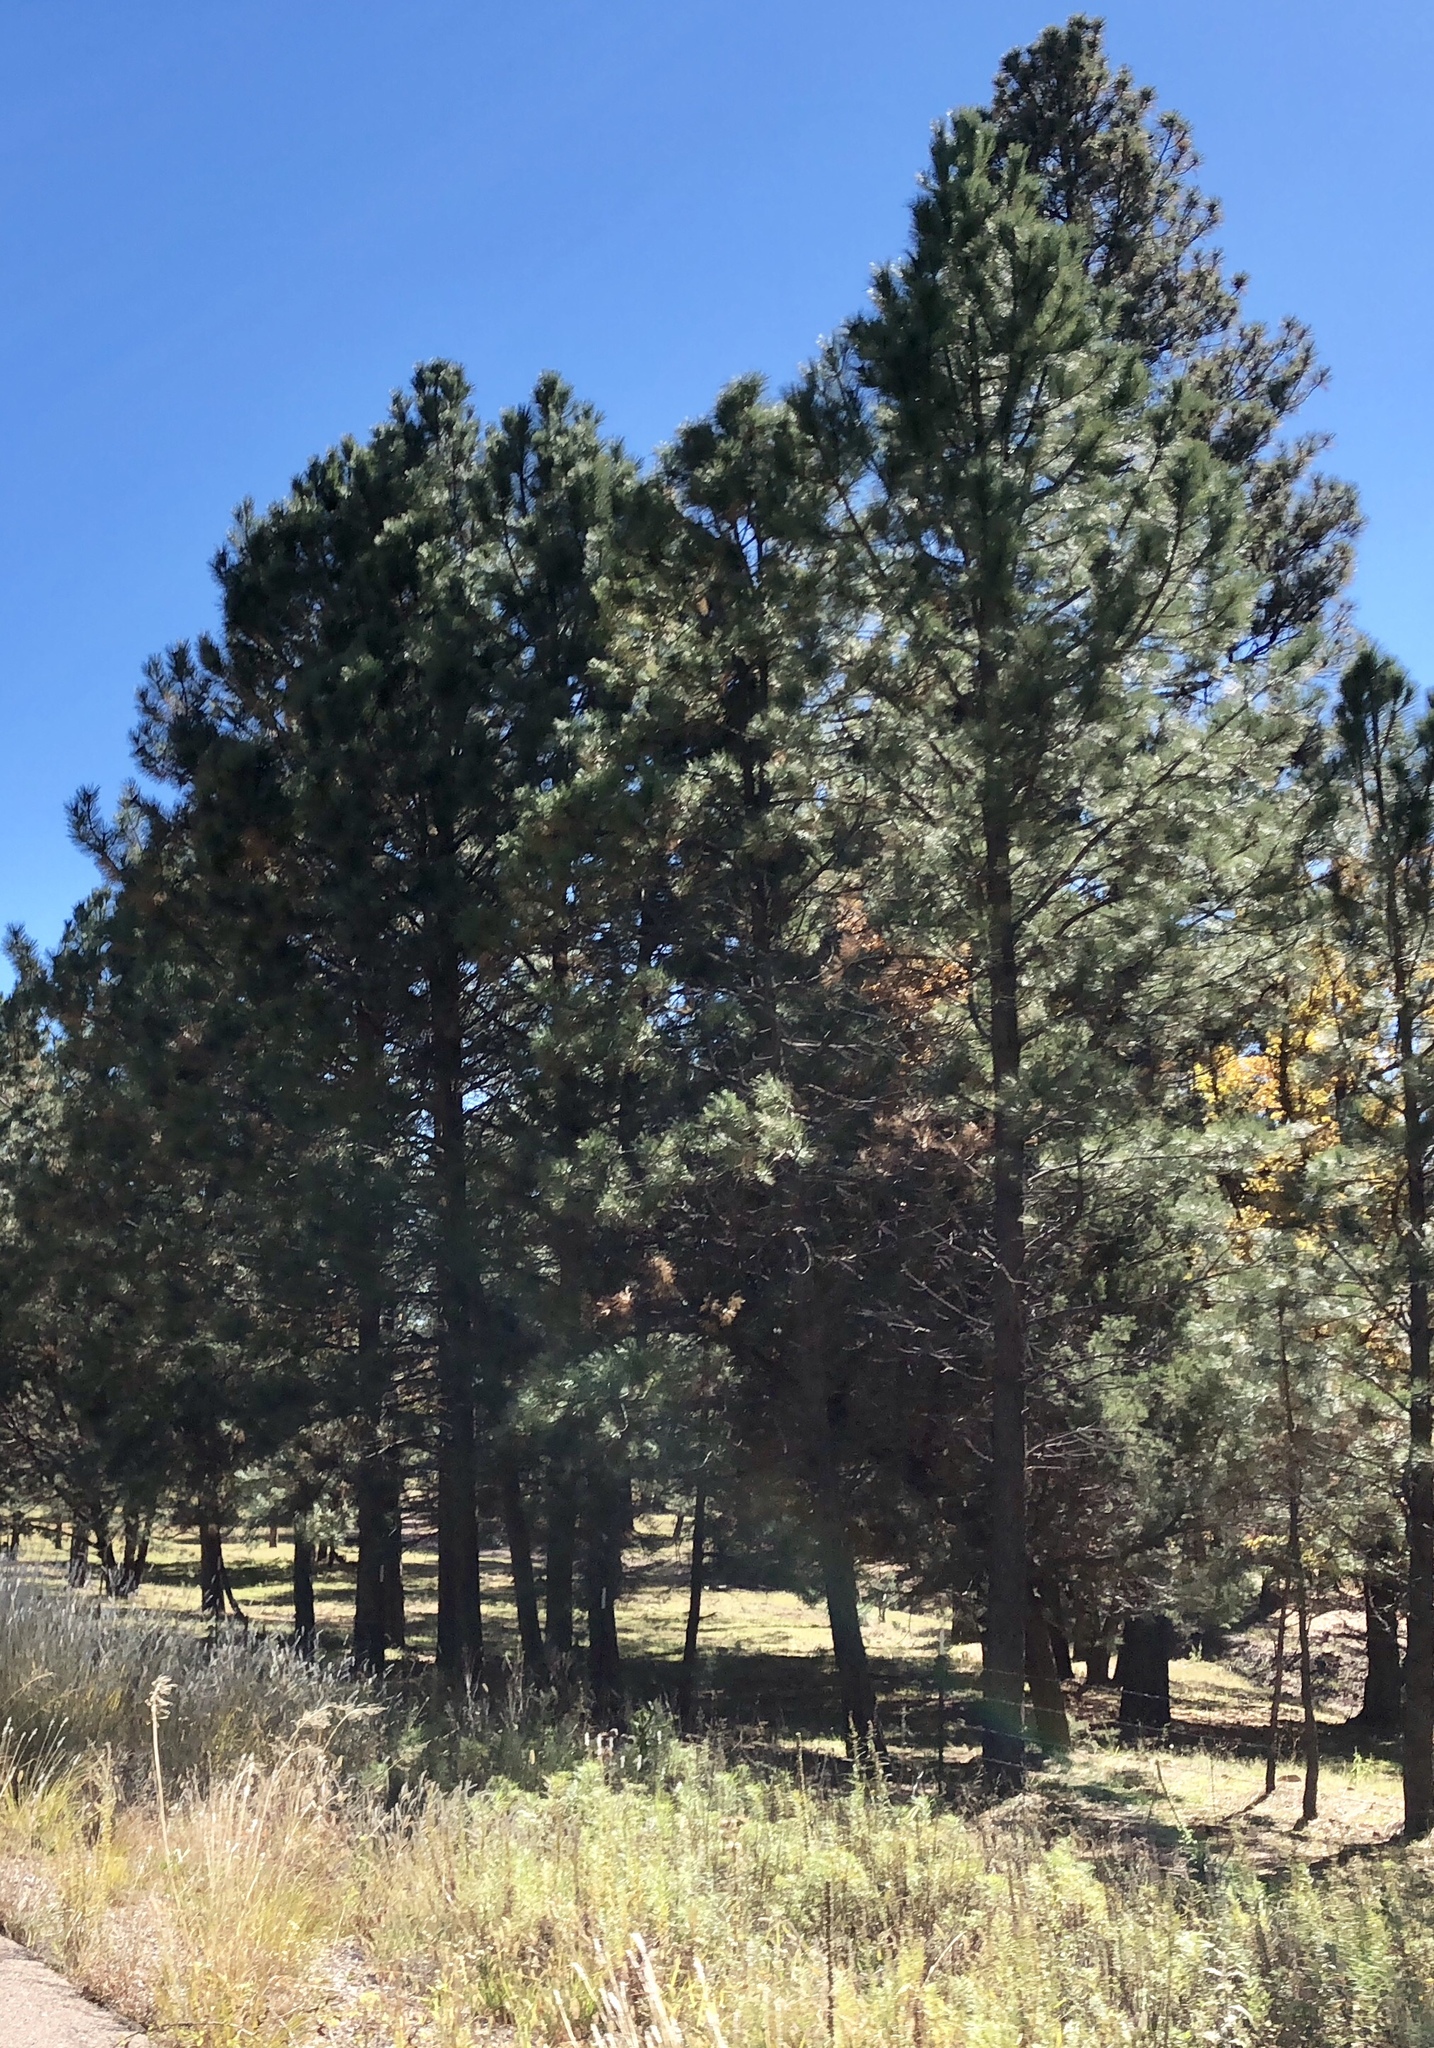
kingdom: Plantae
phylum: Tracheophyta
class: Pinopsida
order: Pinales
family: Pinaceae
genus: Pinus
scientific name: Pinus ponderosa
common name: Western yellow-pine
